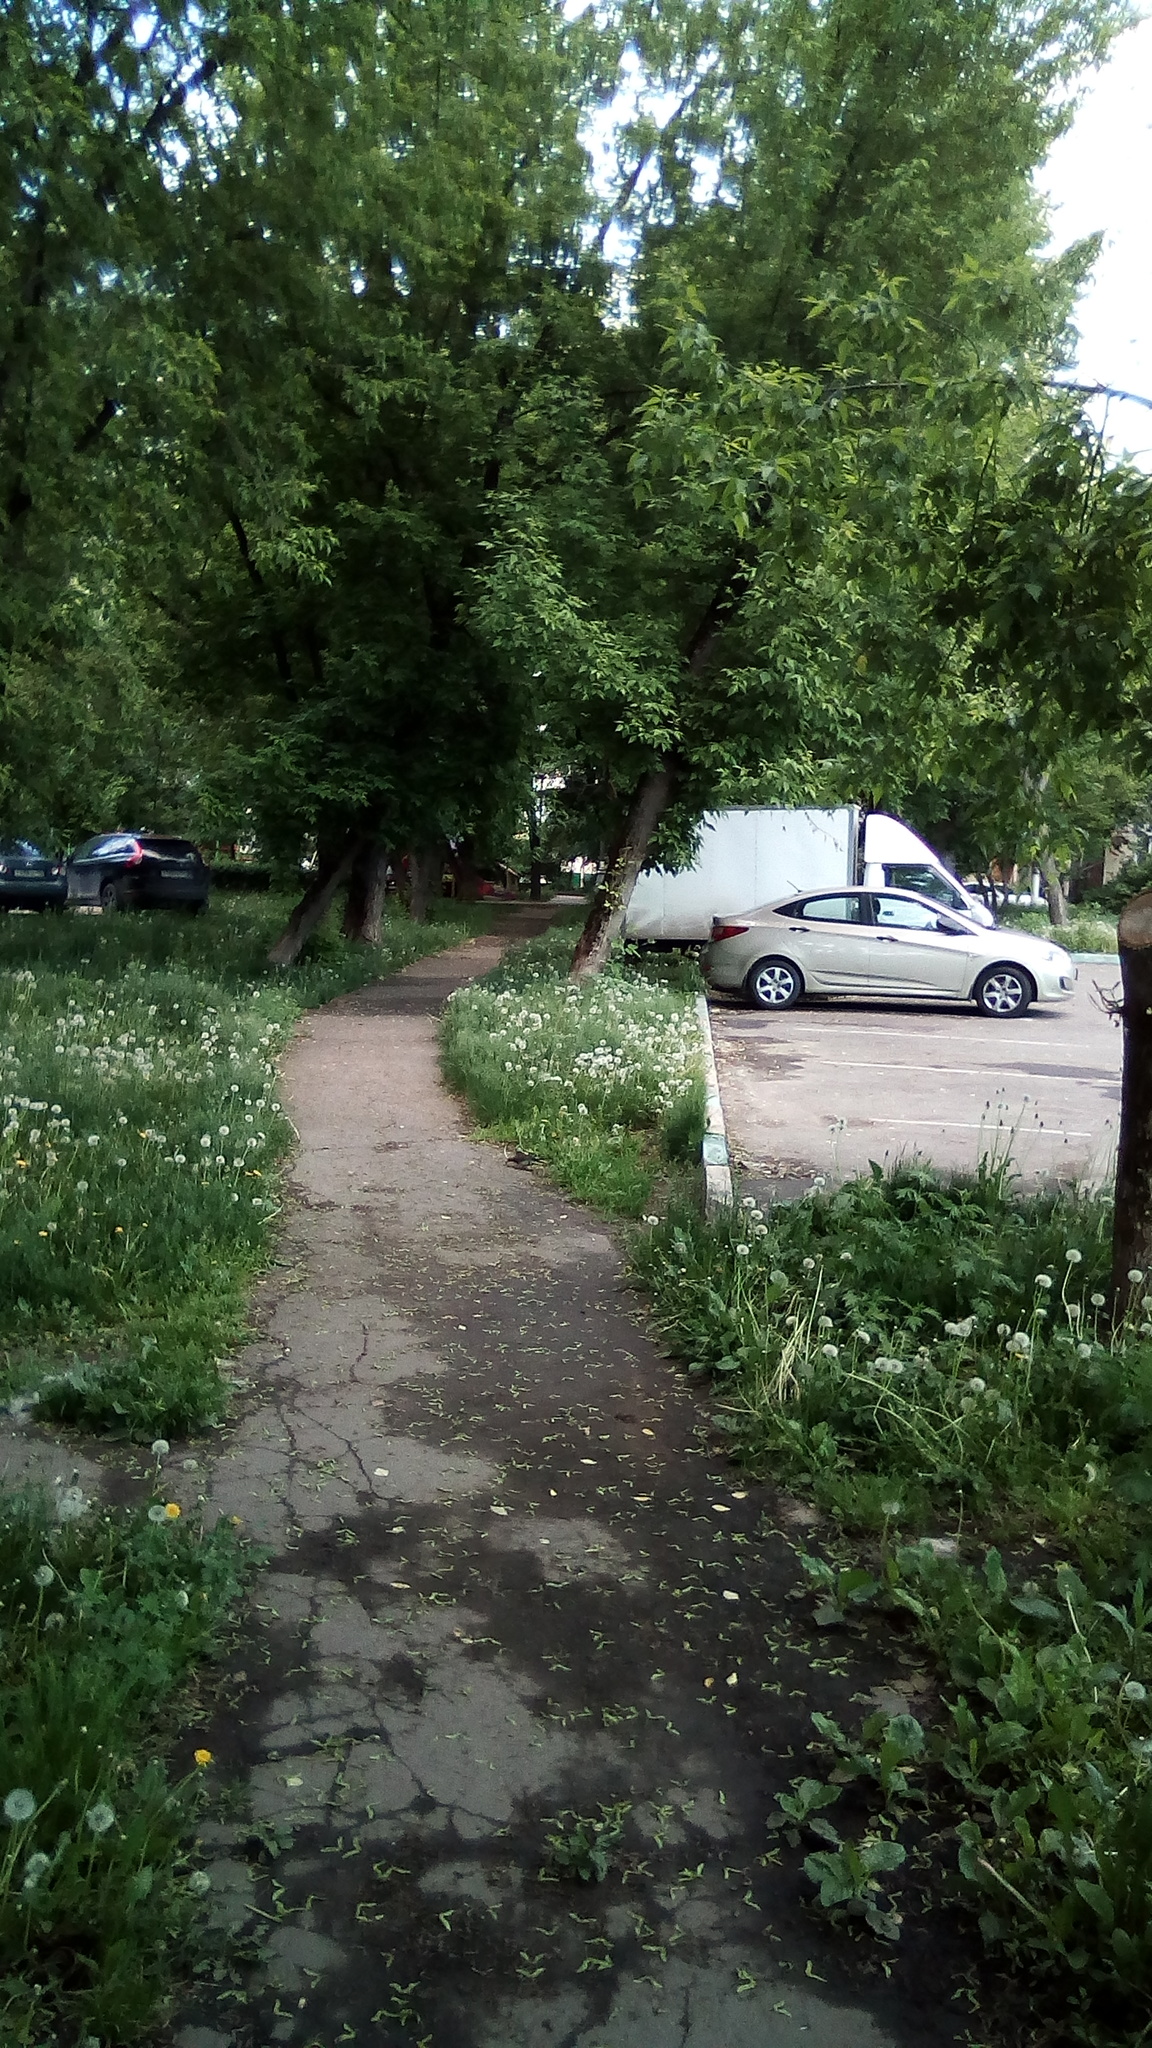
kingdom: Plantae
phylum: Tracheophyta
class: Magnoliopsida
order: Sapindales
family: Sapindaceae
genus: Acer
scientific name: Acer negundo
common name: Ashleaf maple
